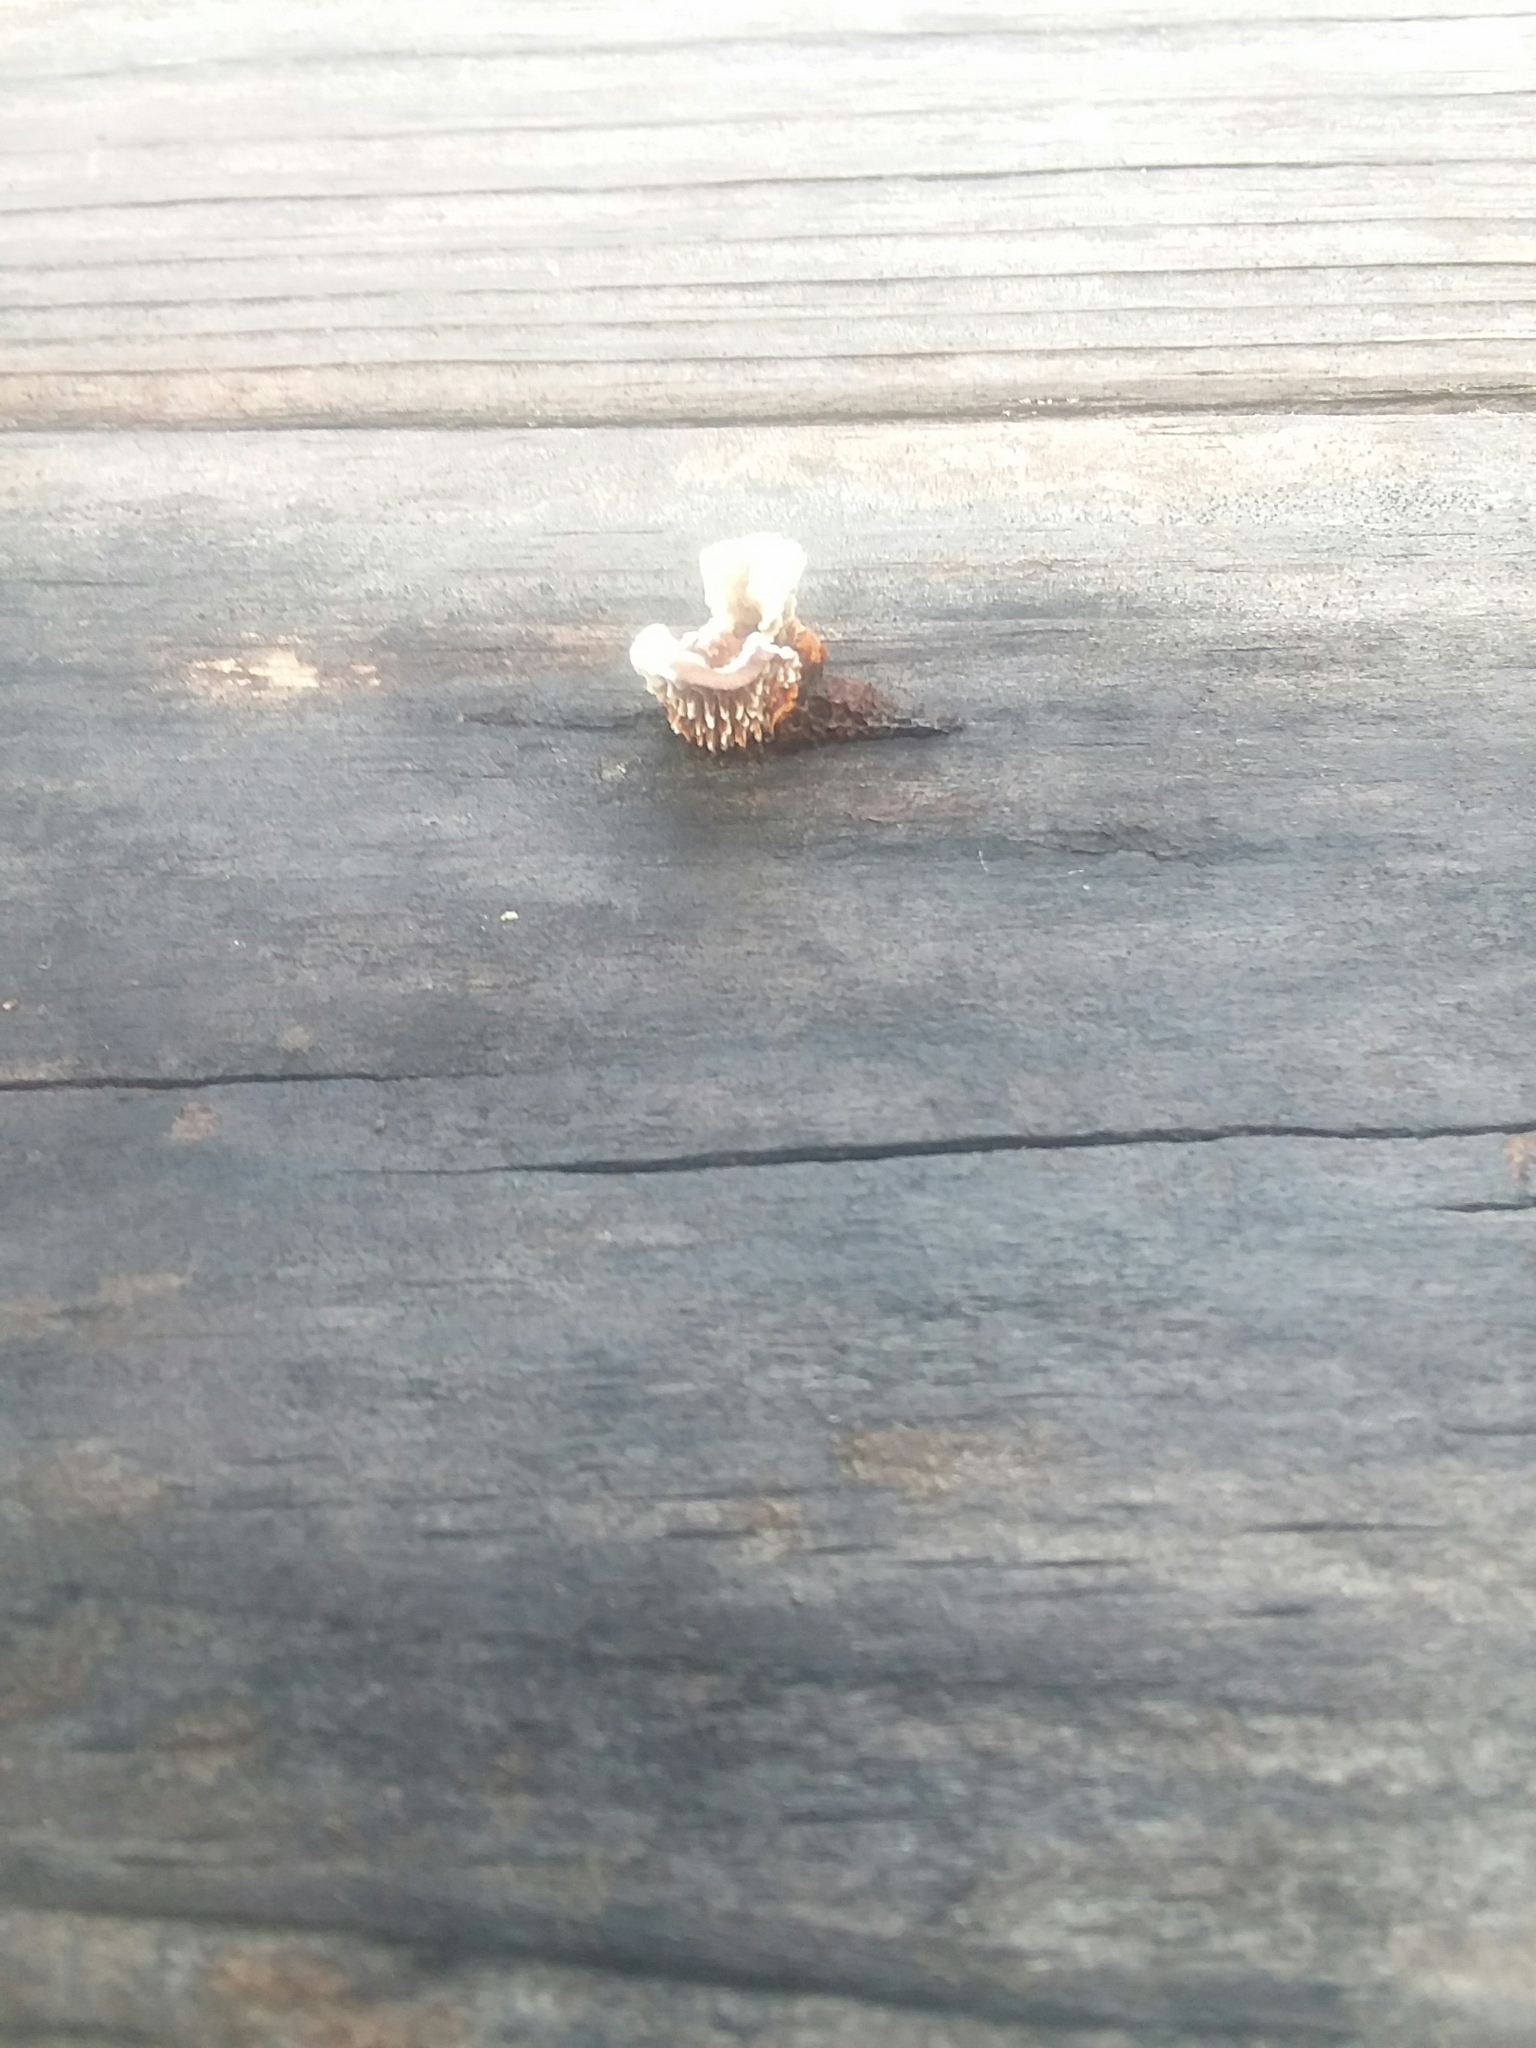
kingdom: Fungi
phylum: Basidiomycota
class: Agaricomycetes
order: Gloeophyllales
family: Gloeophyllaceae
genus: Gloeophyllum
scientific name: Gloeophyllum sepiarium
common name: Conifer mazegill
